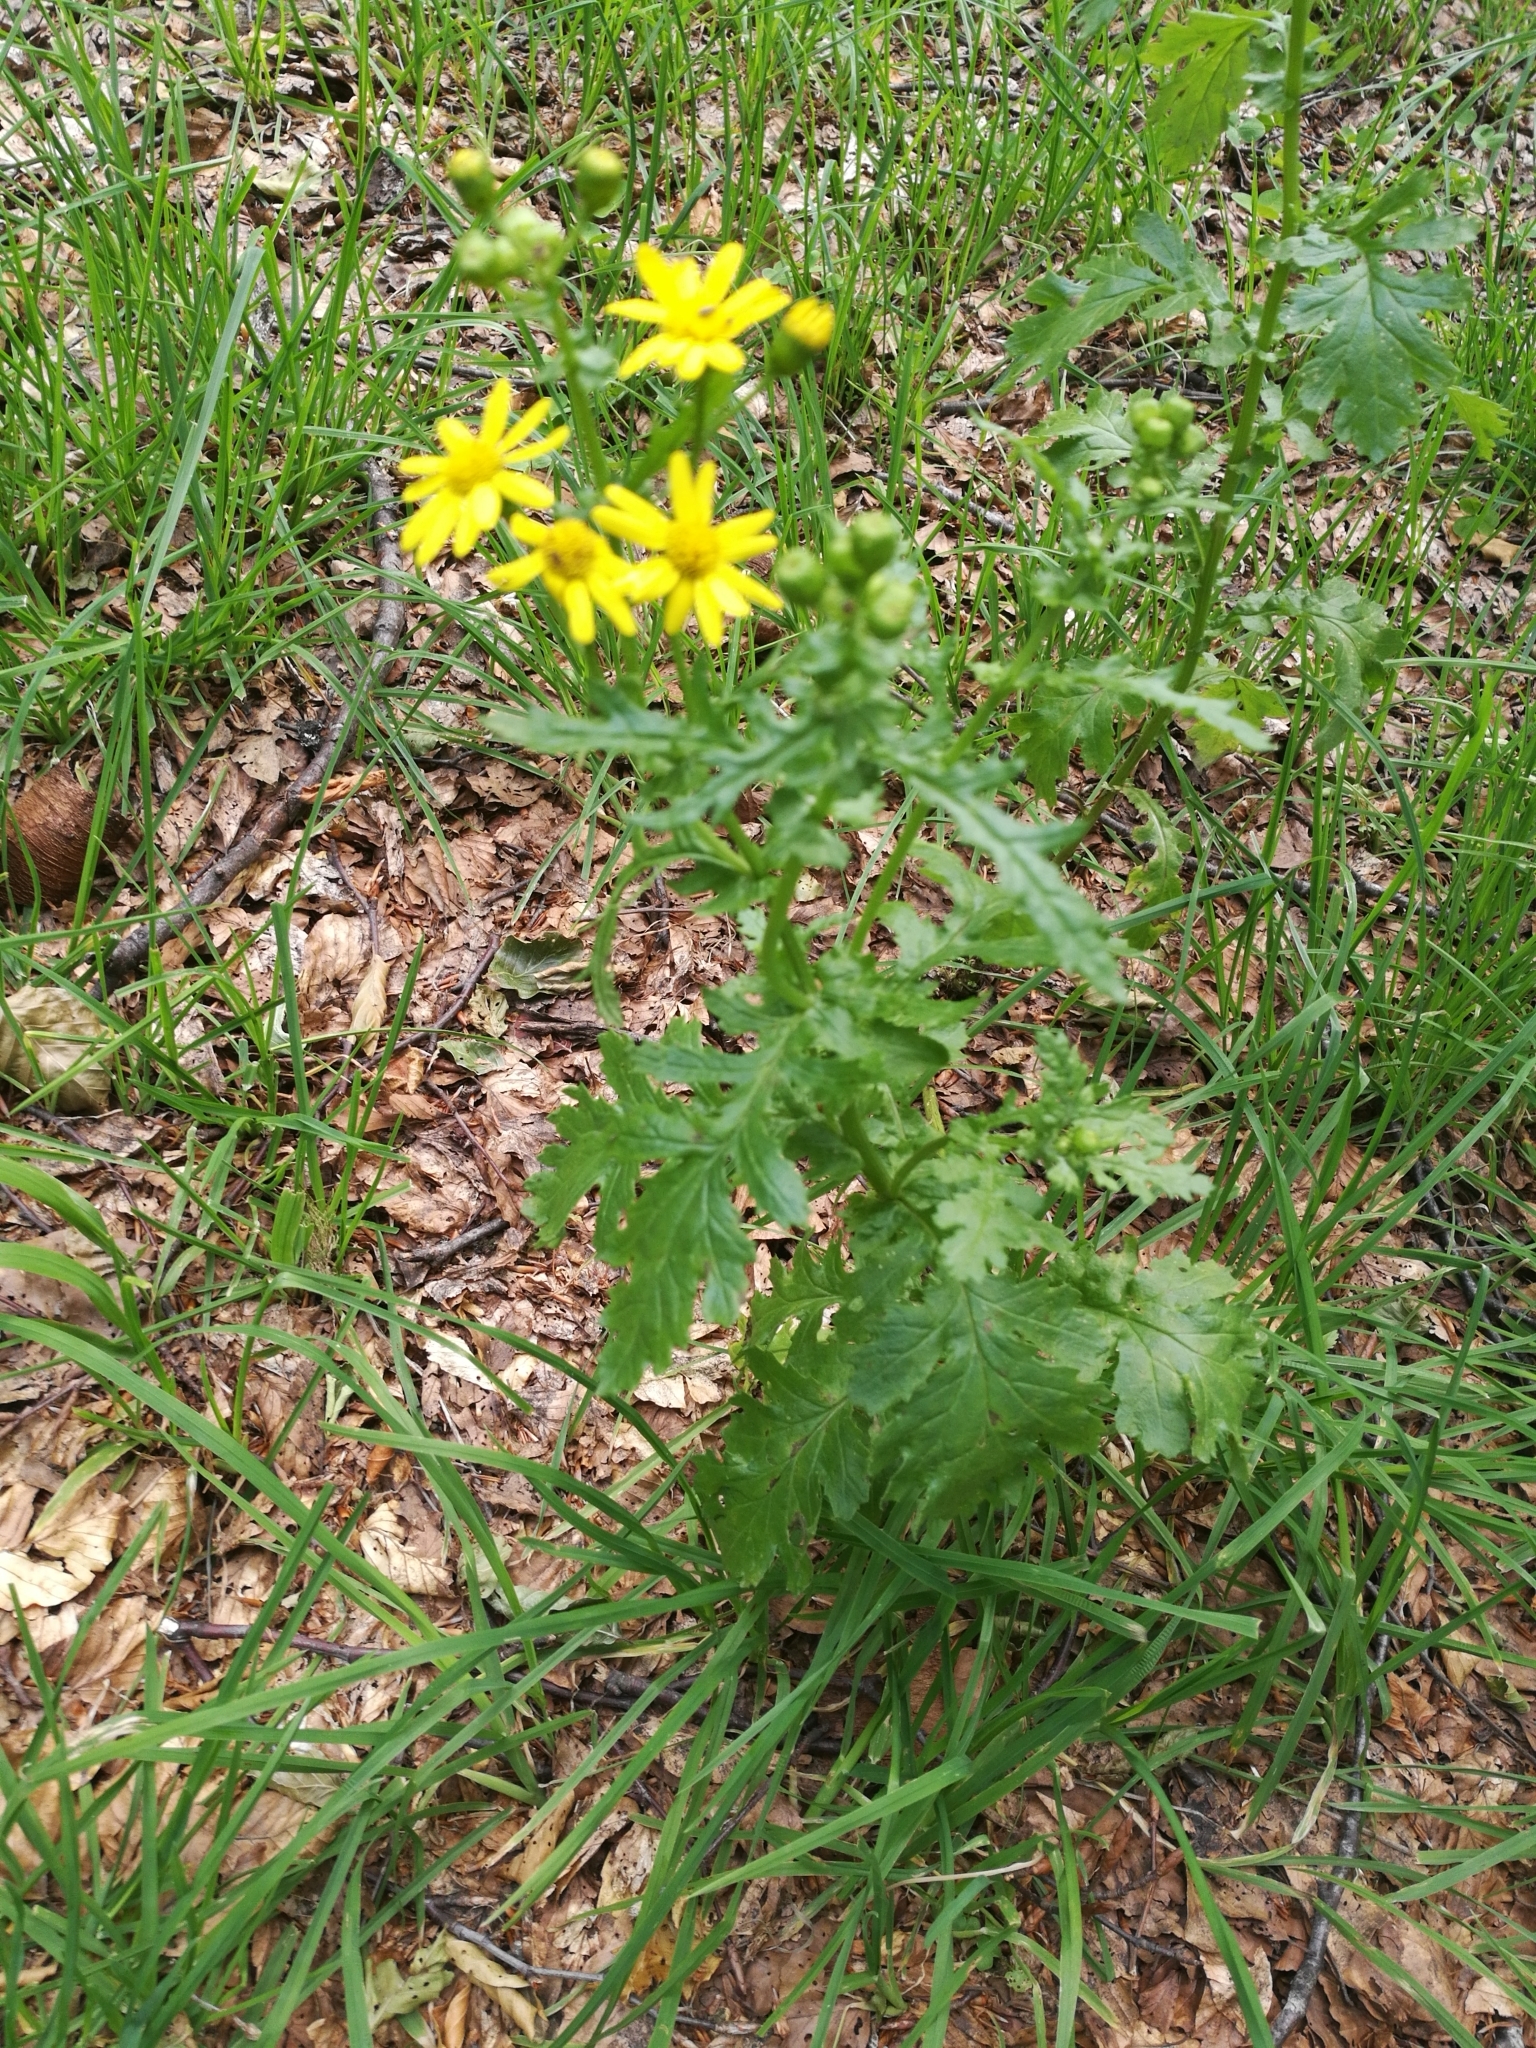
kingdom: Plantae
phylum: Tracheophyta
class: Magnoliopsida
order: Asterales
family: Asteraceae
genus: Senecio
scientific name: Senecio rupestris
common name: Rock ragwort
